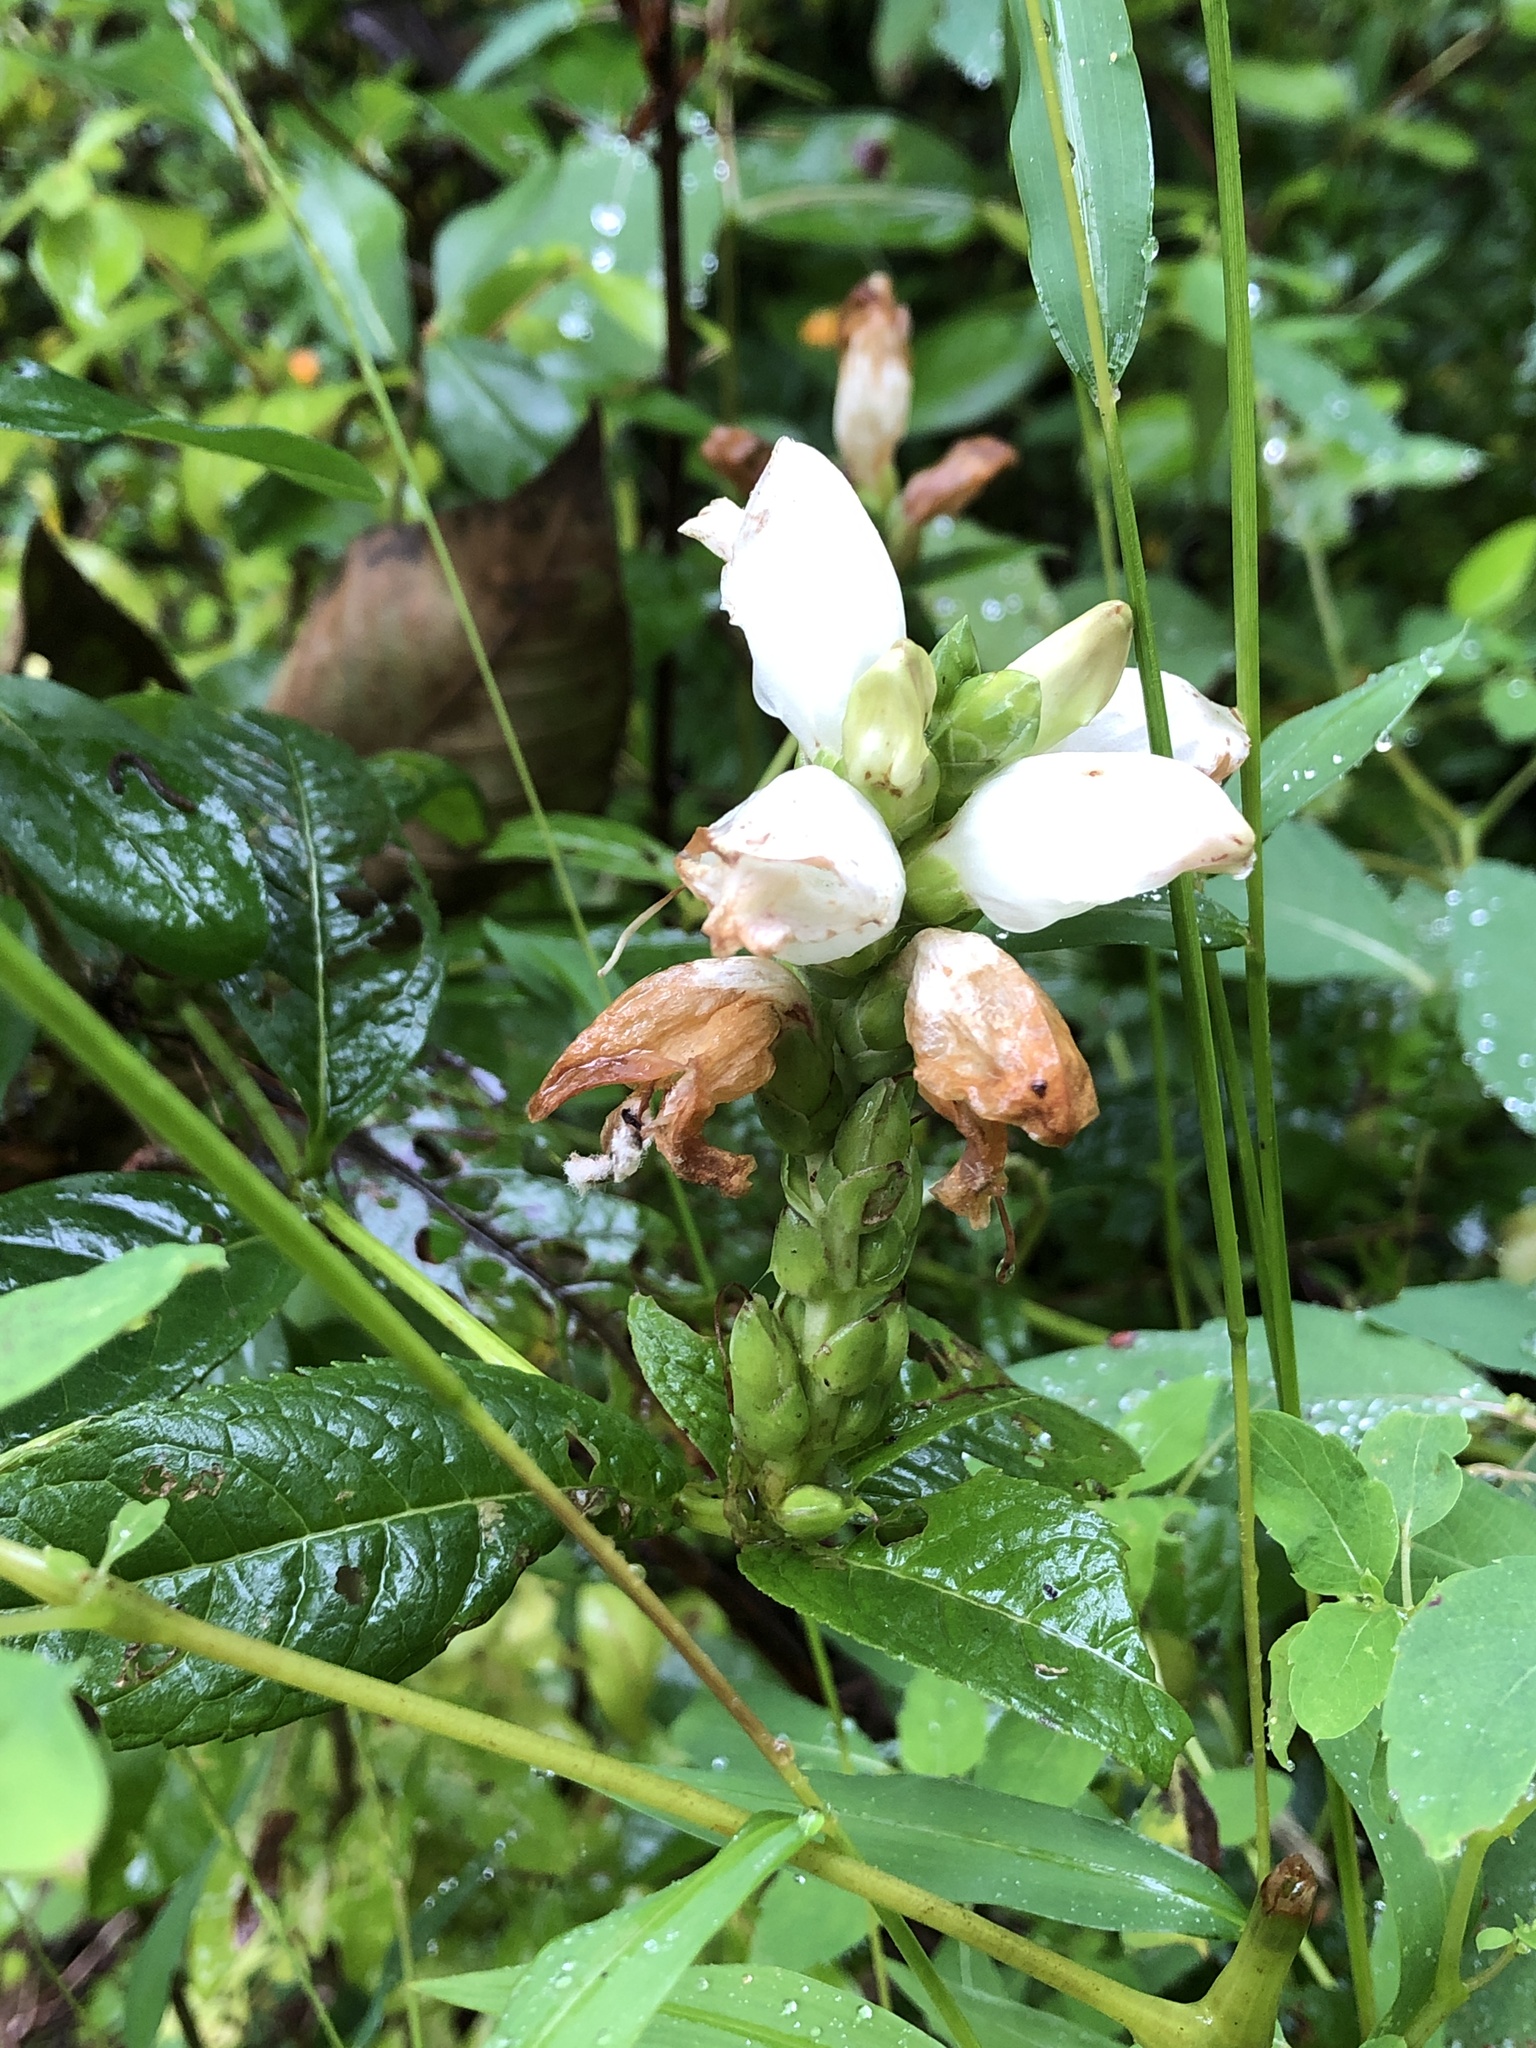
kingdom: Plantae
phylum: Tracheophyta
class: Magnoliopsida
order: Lamiales
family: Plantaginaceae
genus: Chelone
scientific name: Chelone glabra
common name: Snakehead
